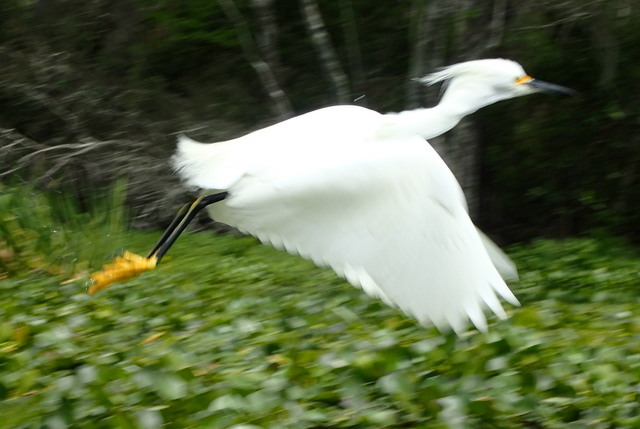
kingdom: Animalia
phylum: Chordata
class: Aves
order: Pelecaniformes
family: Ardeidae
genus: Egretta
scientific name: Egretta thula
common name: Snowy egret
